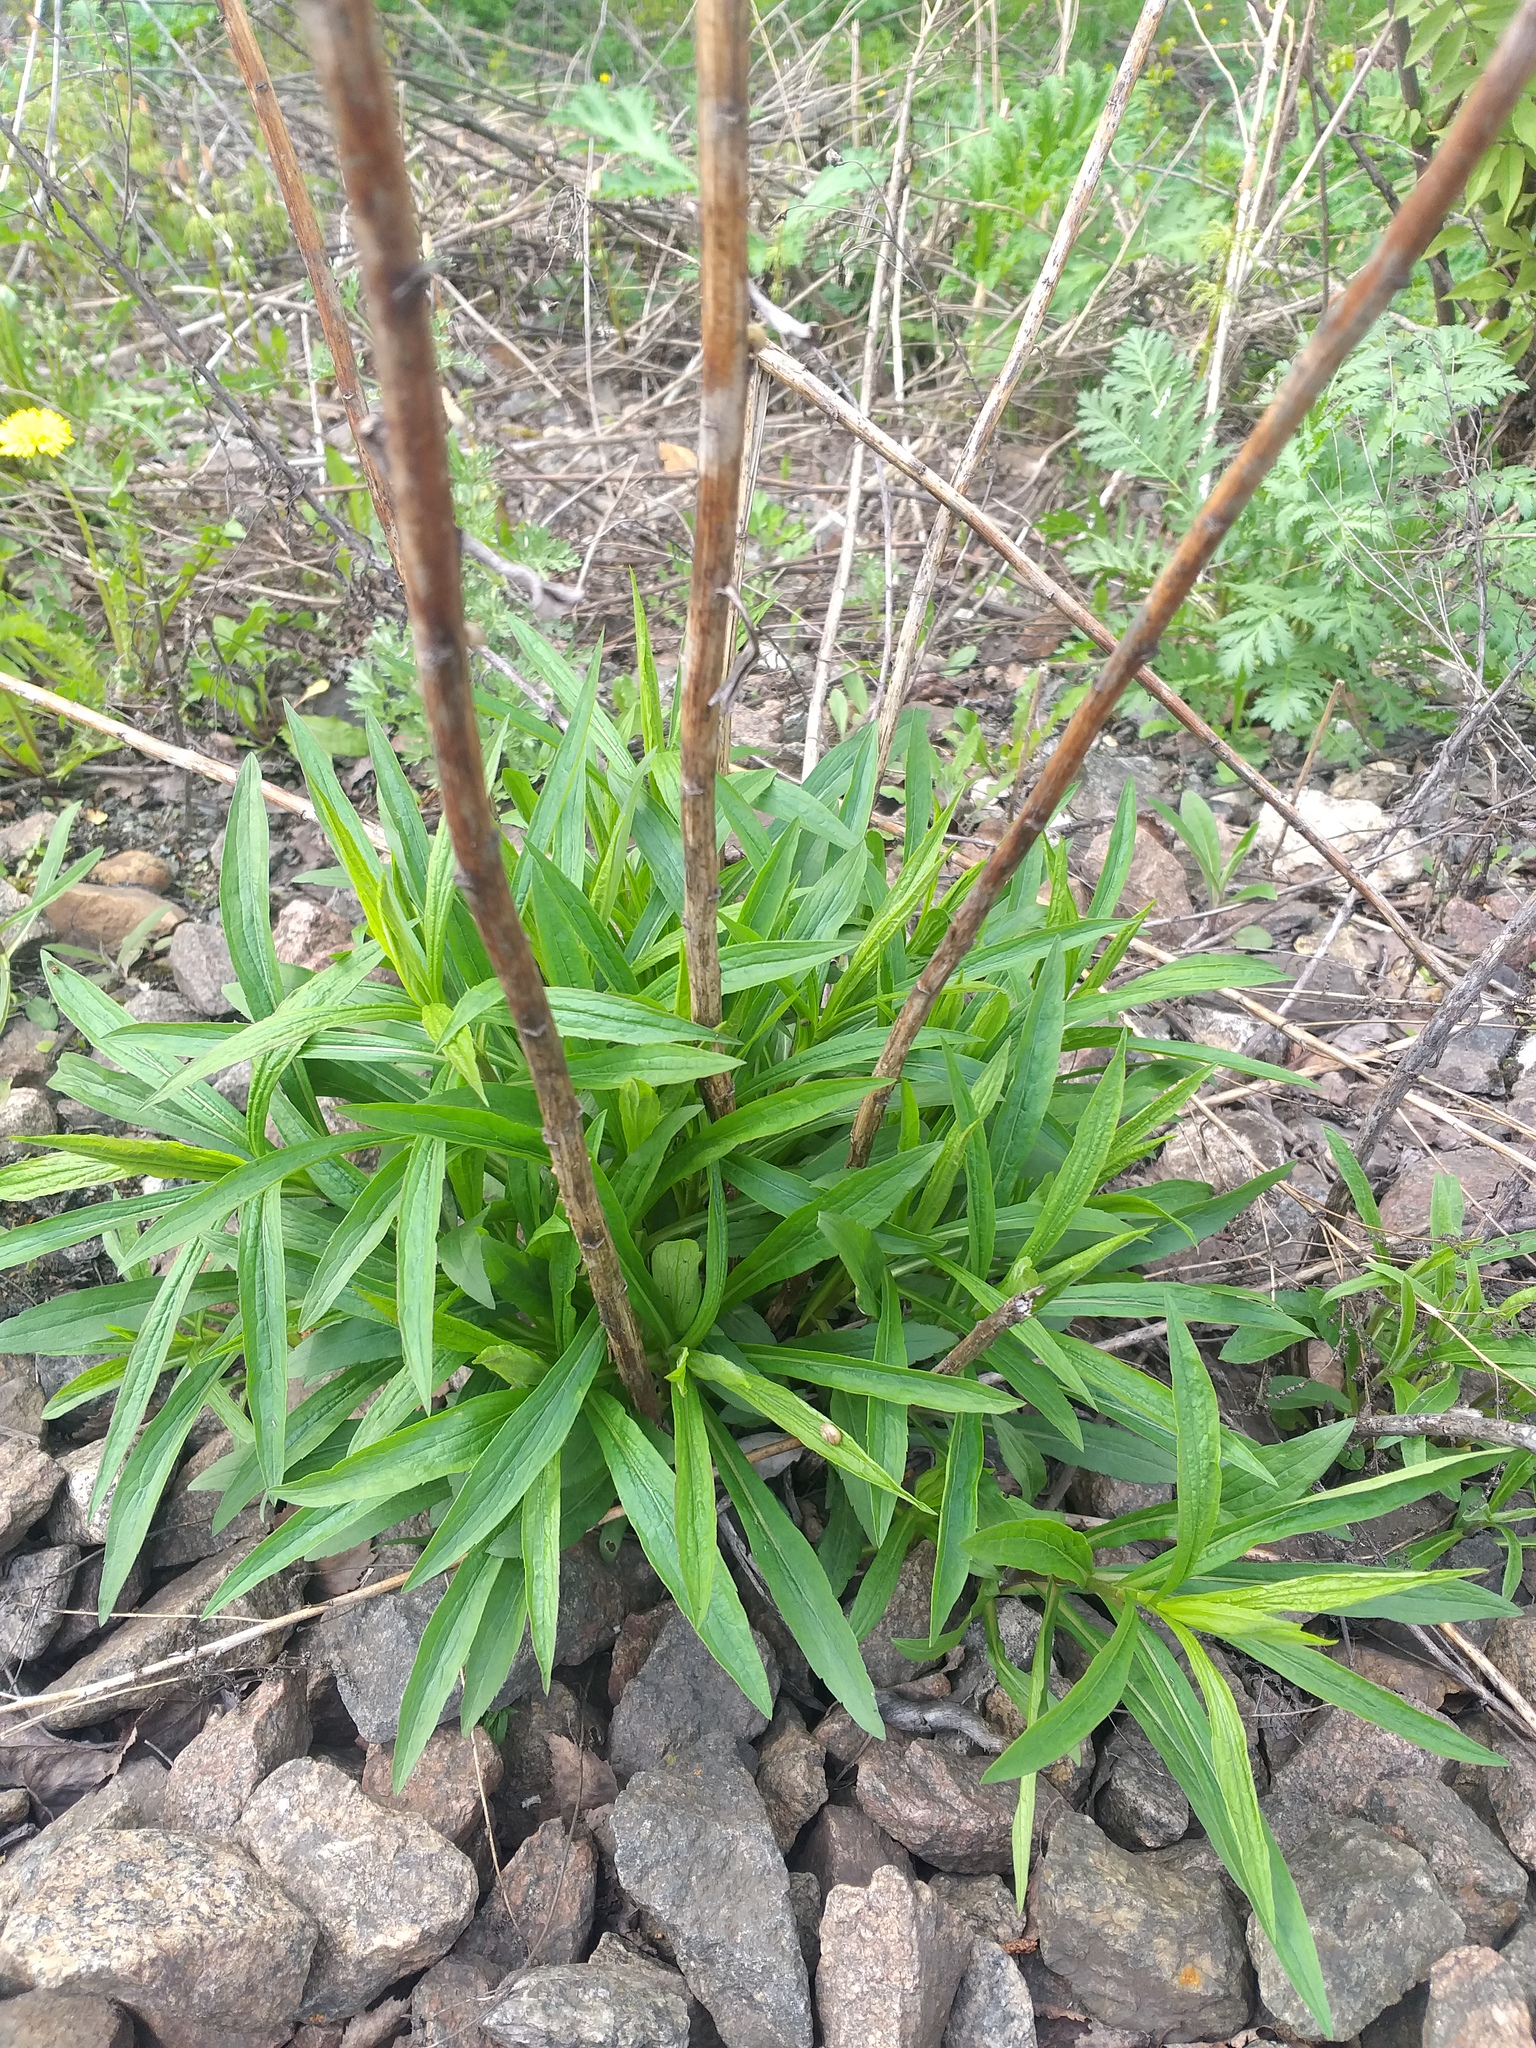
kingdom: Plantae
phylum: Tracheophyta
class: Magnoliopsida
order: Asterales
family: Asteraceae
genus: Solidago
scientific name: Solidago canadensis
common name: Canada goldenrod
